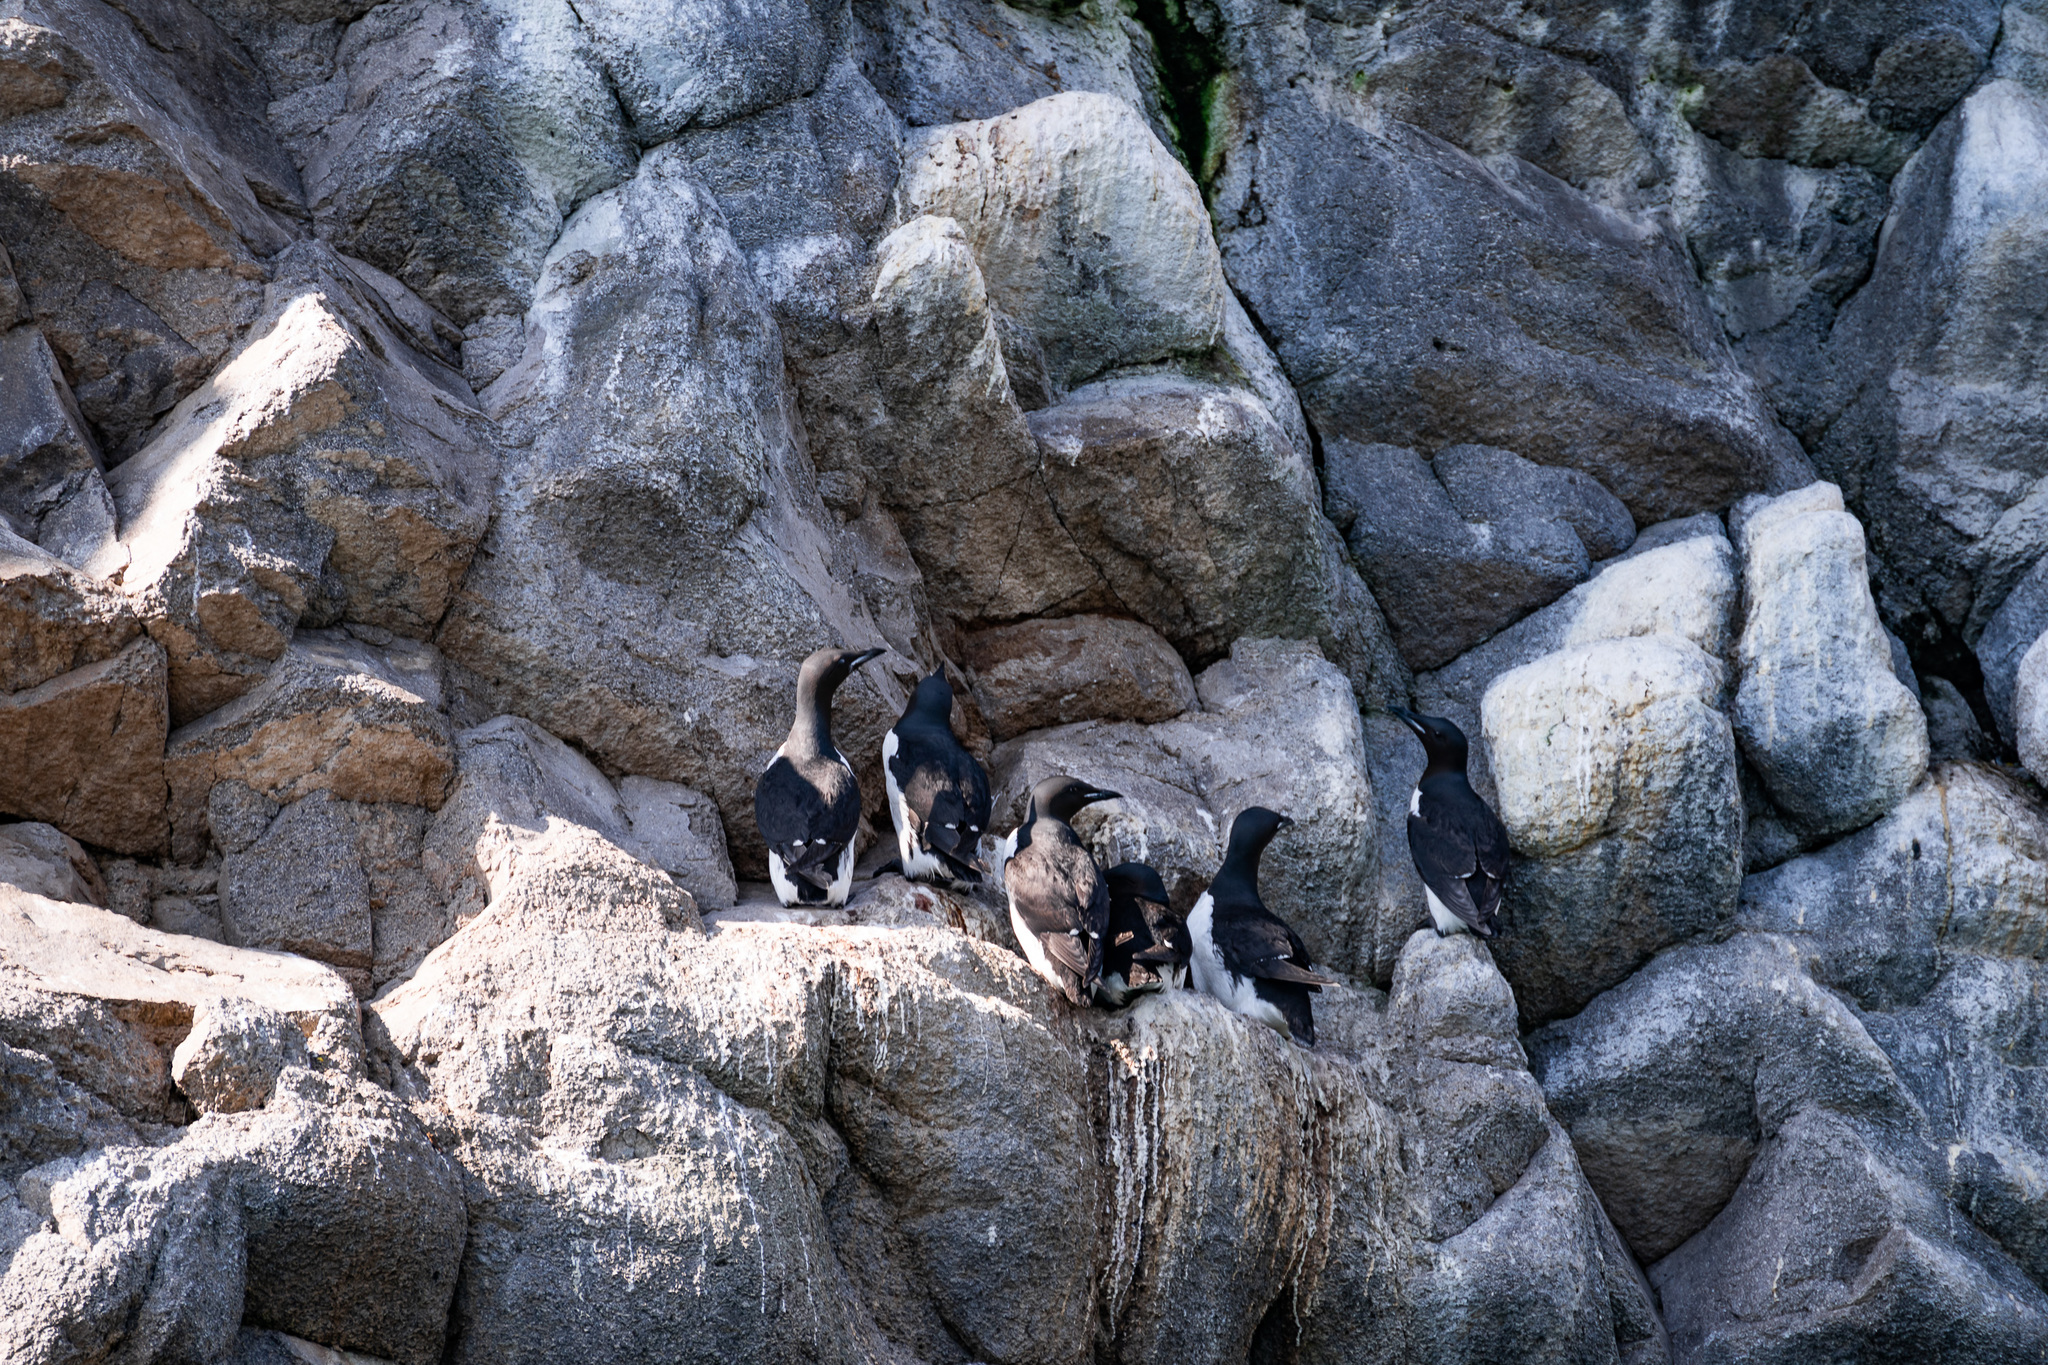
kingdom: Animalia
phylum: Chordata
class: Aves
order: Charadriiformes
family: Alcidae
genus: Uria
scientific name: Uria lomvia
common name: Thick-billed murre
